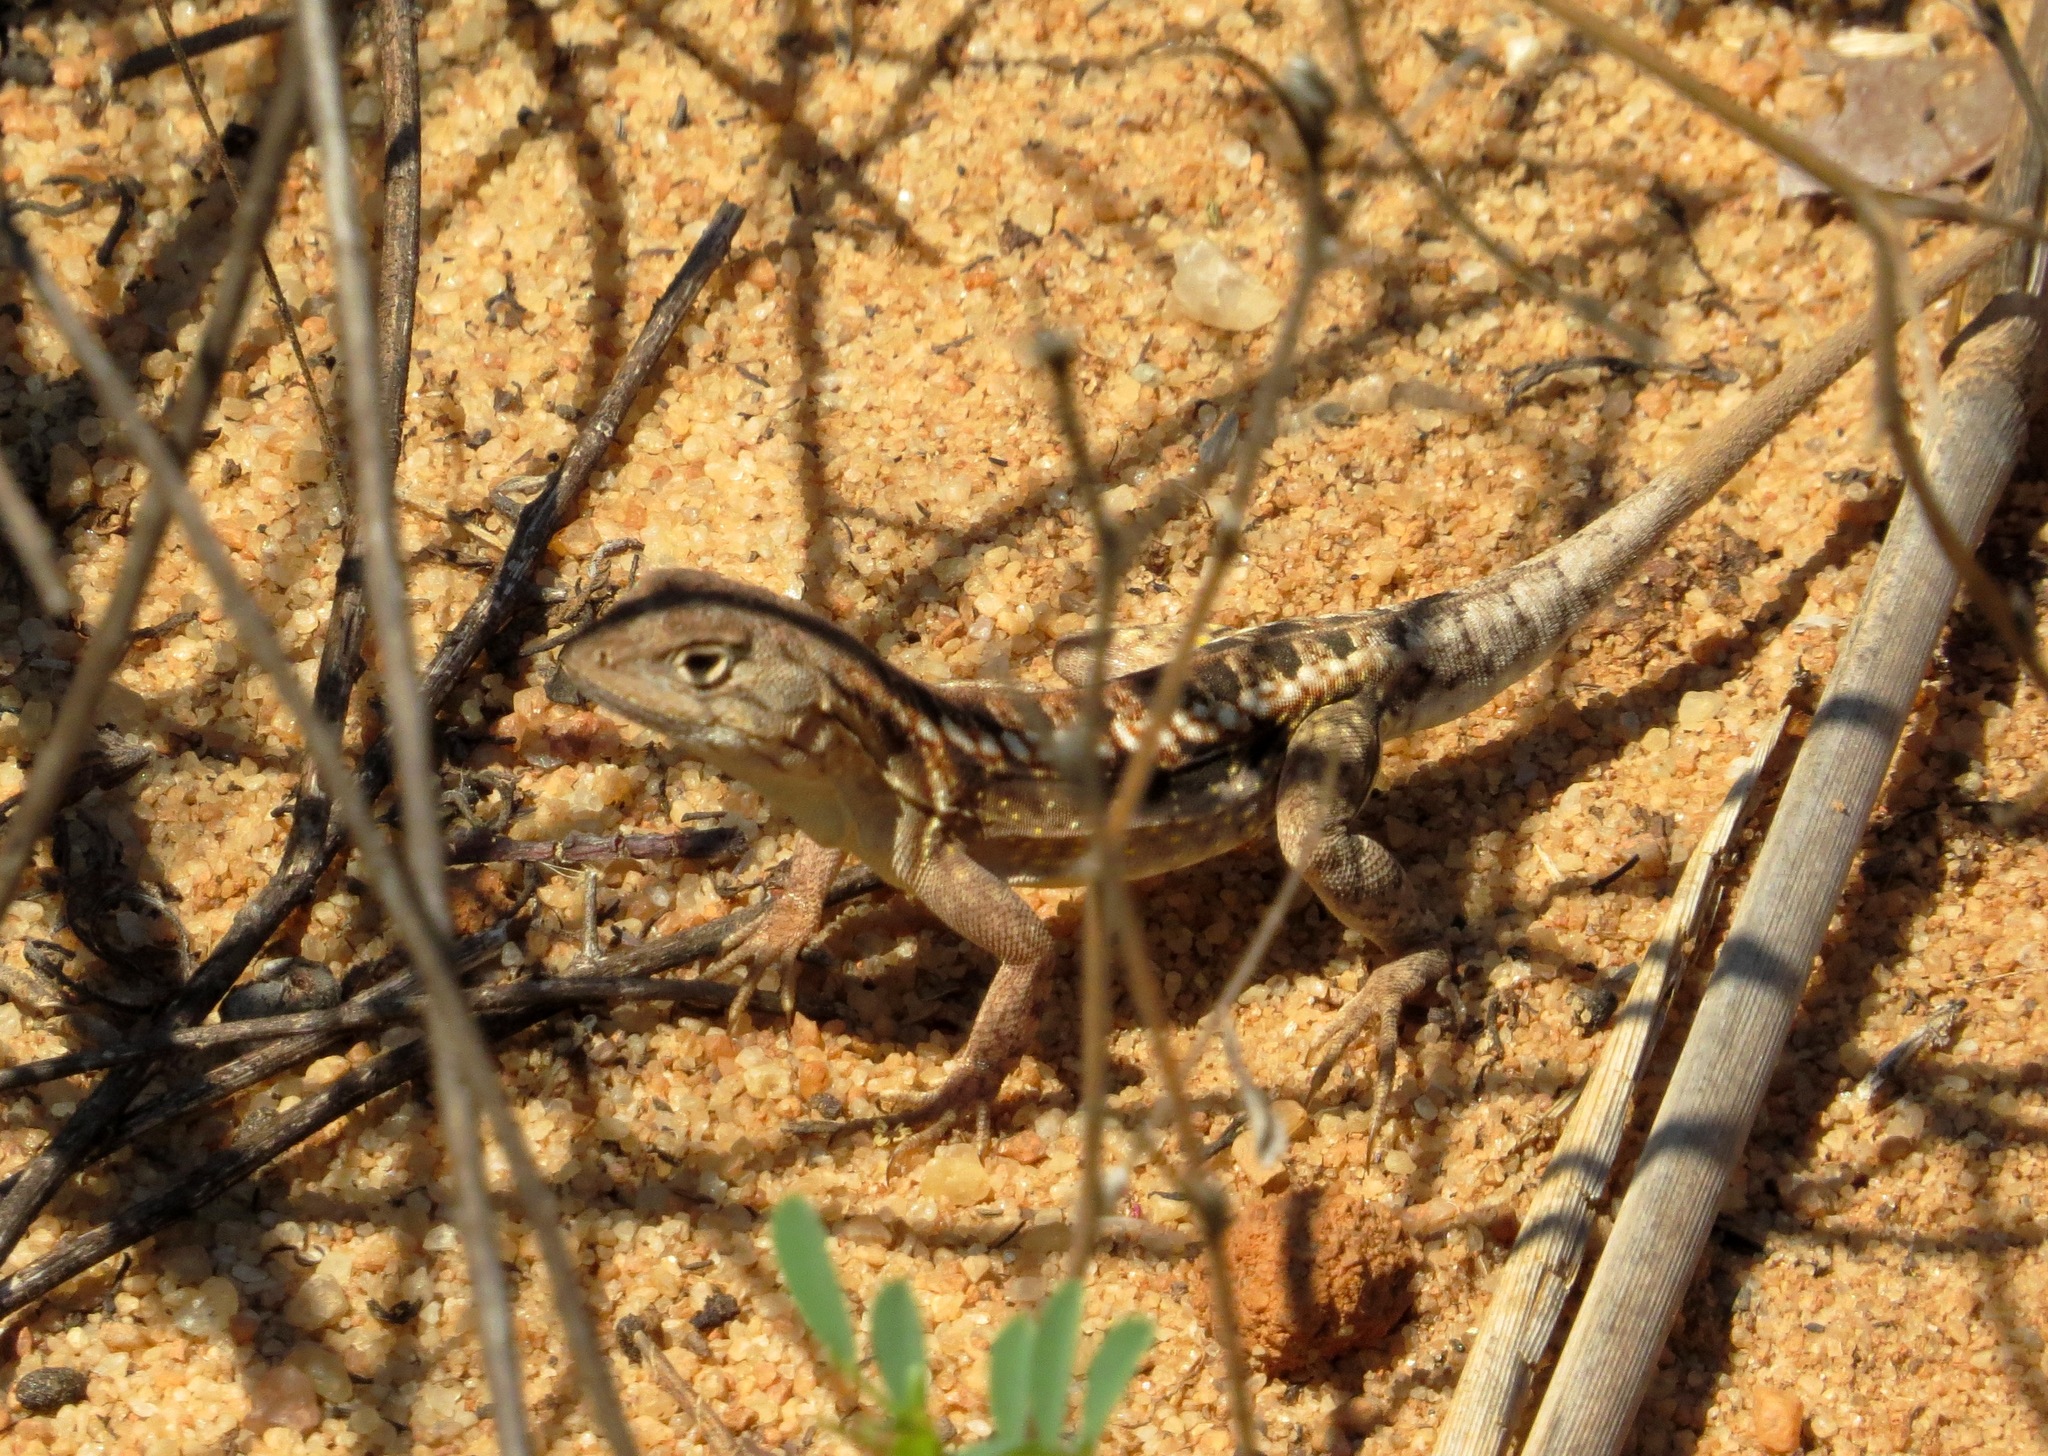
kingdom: Animalia
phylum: Chordata
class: Squamata
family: Opluridae
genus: Chalarodon
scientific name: Chalarodon madagascariensis
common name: Madagascar iguana
